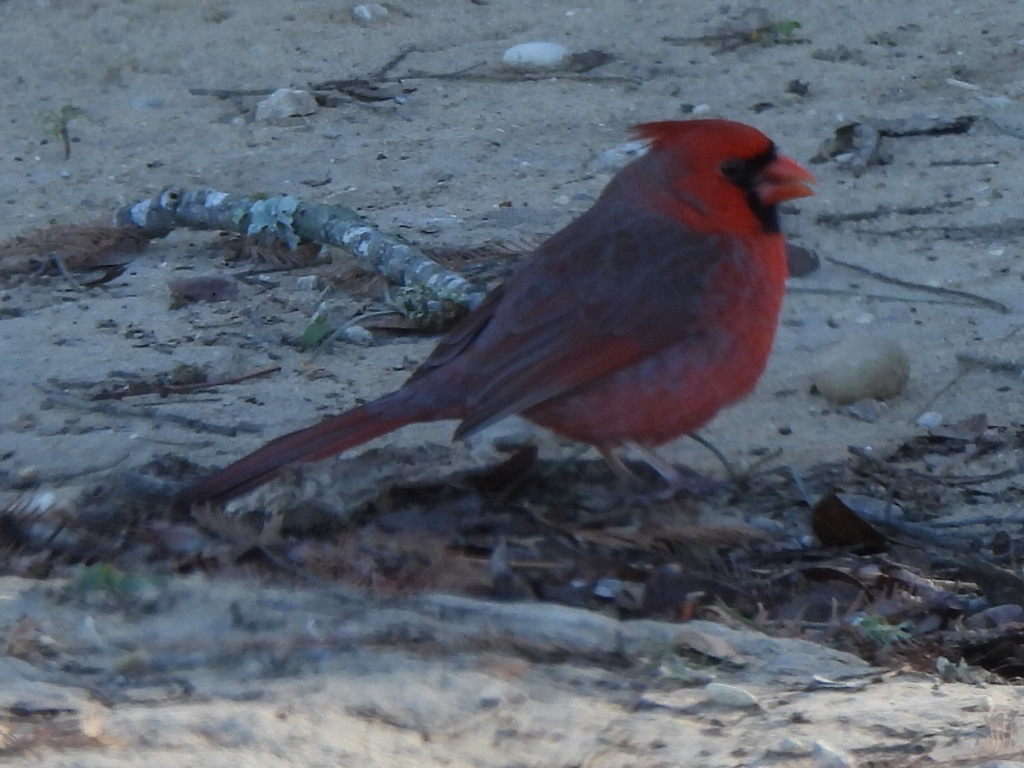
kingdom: Animalia
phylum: Chordata
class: Aves
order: Passeriformes
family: Cardinalidae
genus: Cardinalis
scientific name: Cardinalis cardinalis
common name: Northern cardinal
